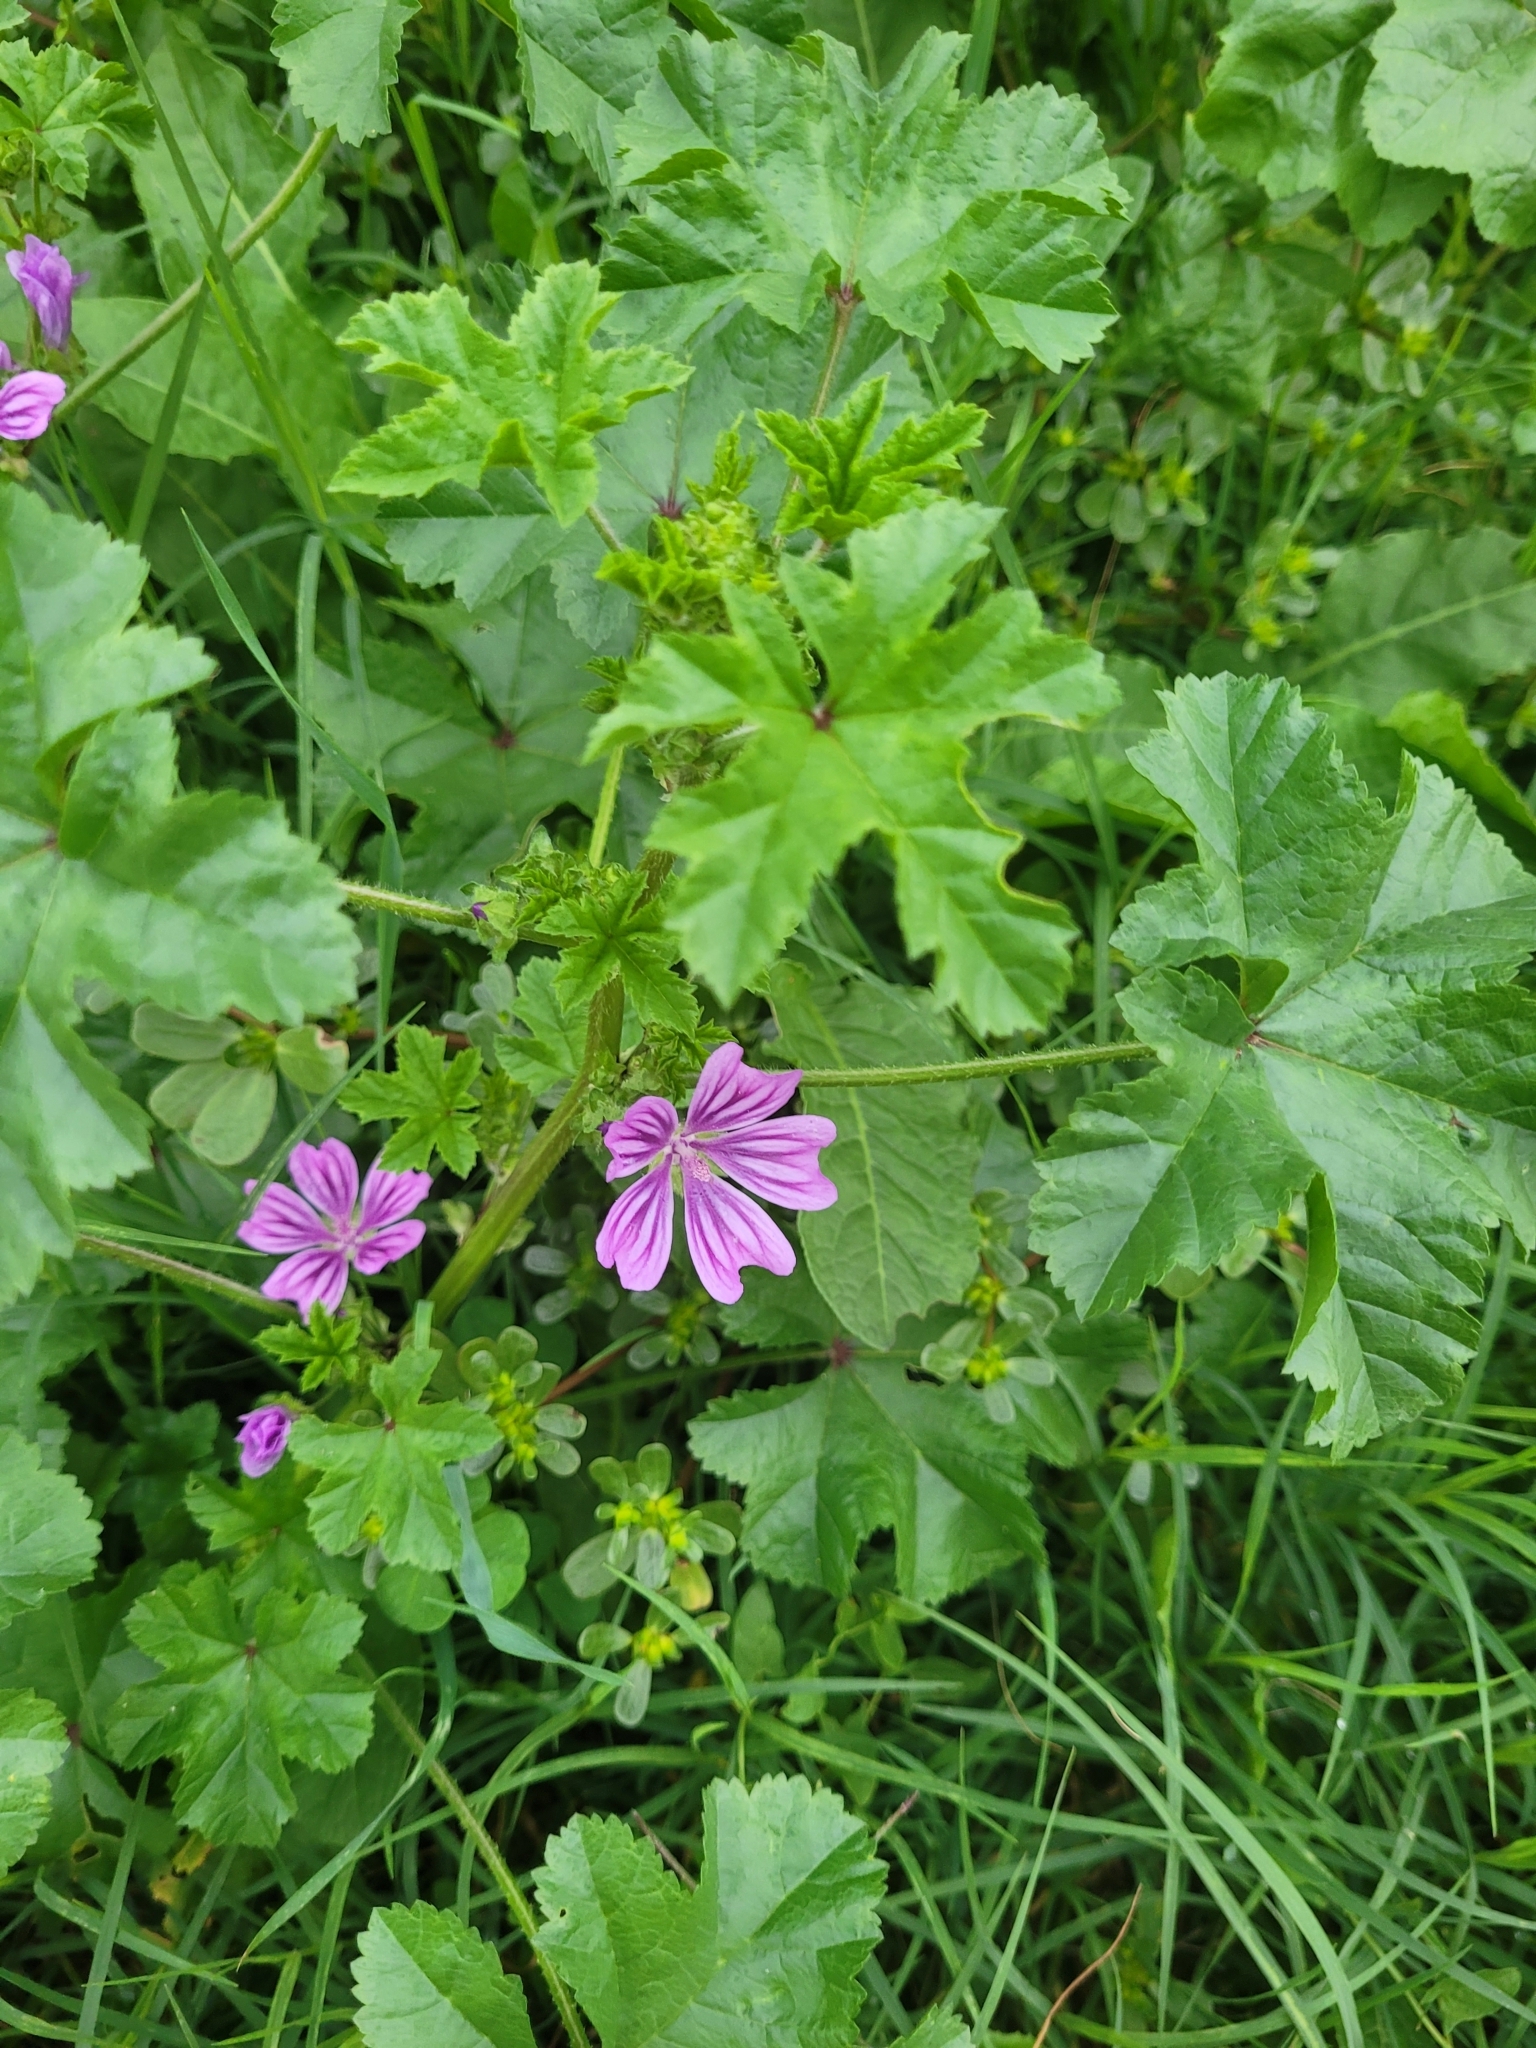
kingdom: Plantae
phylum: Tracheophyta
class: Magnoliopsida
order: Malvales
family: Malvaceae
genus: Malva
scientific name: Malva sylvestris
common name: Common mallow
